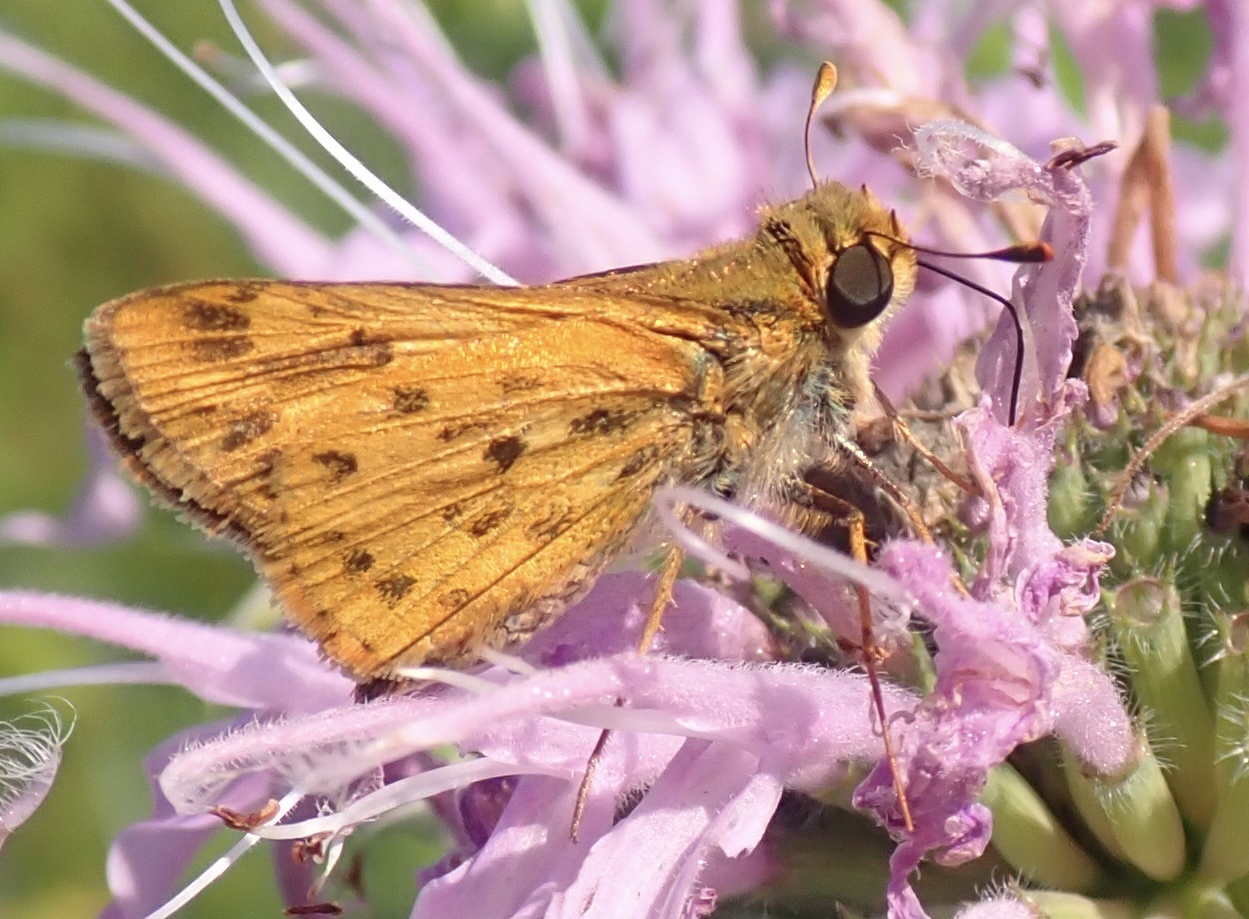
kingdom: Animalia
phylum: Arthropoda
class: Insecta
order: Lepidoptera
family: Hesperiidae
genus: Hylephila
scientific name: Hylephila phyleus
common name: Fiery skipper
